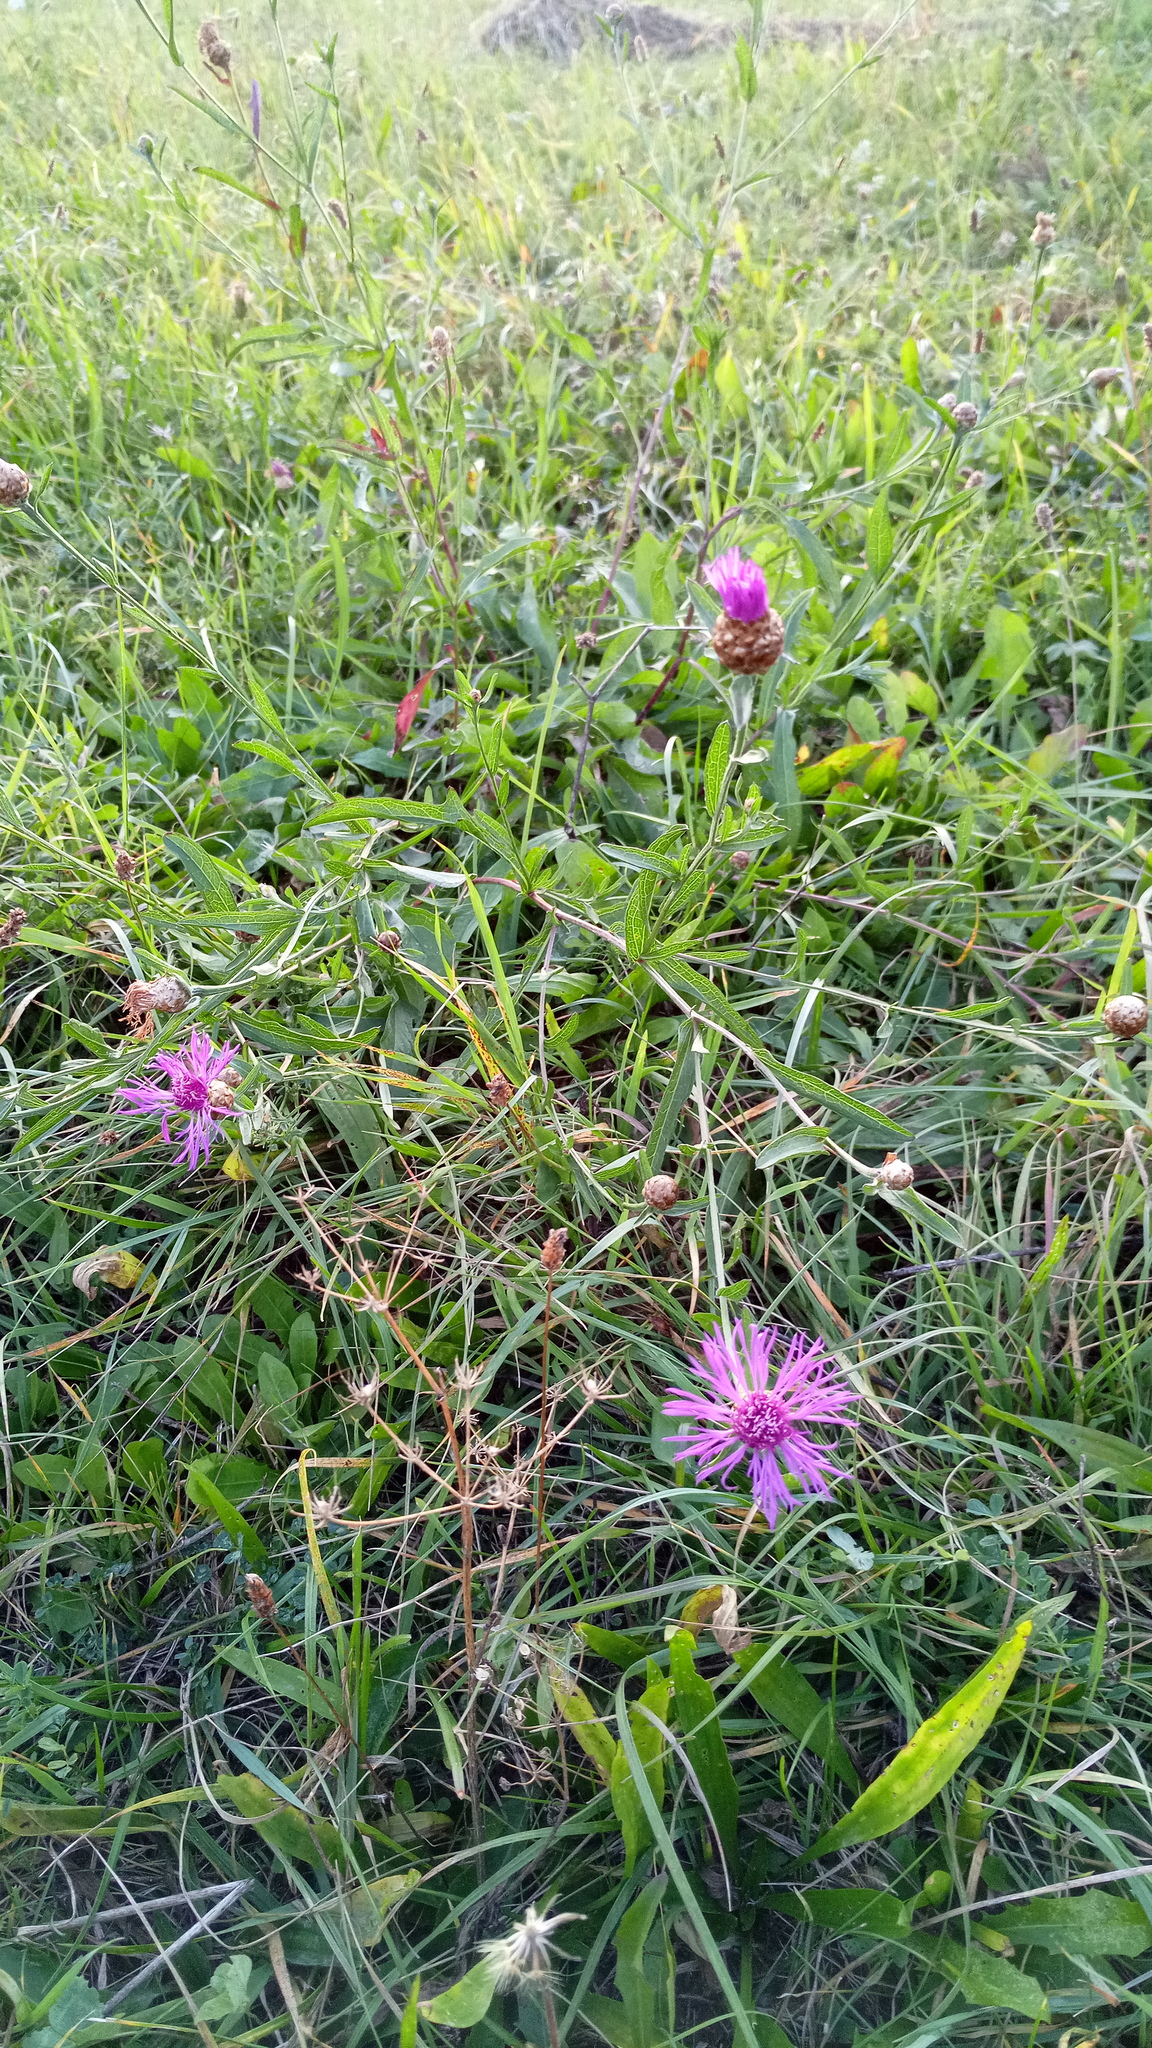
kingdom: Plantae
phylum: Tracheophyta
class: Magnoliopsida
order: Asterales
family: Asteraceae
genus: Centaurea
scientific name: Centaurea jacea
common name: Brown knapweed
